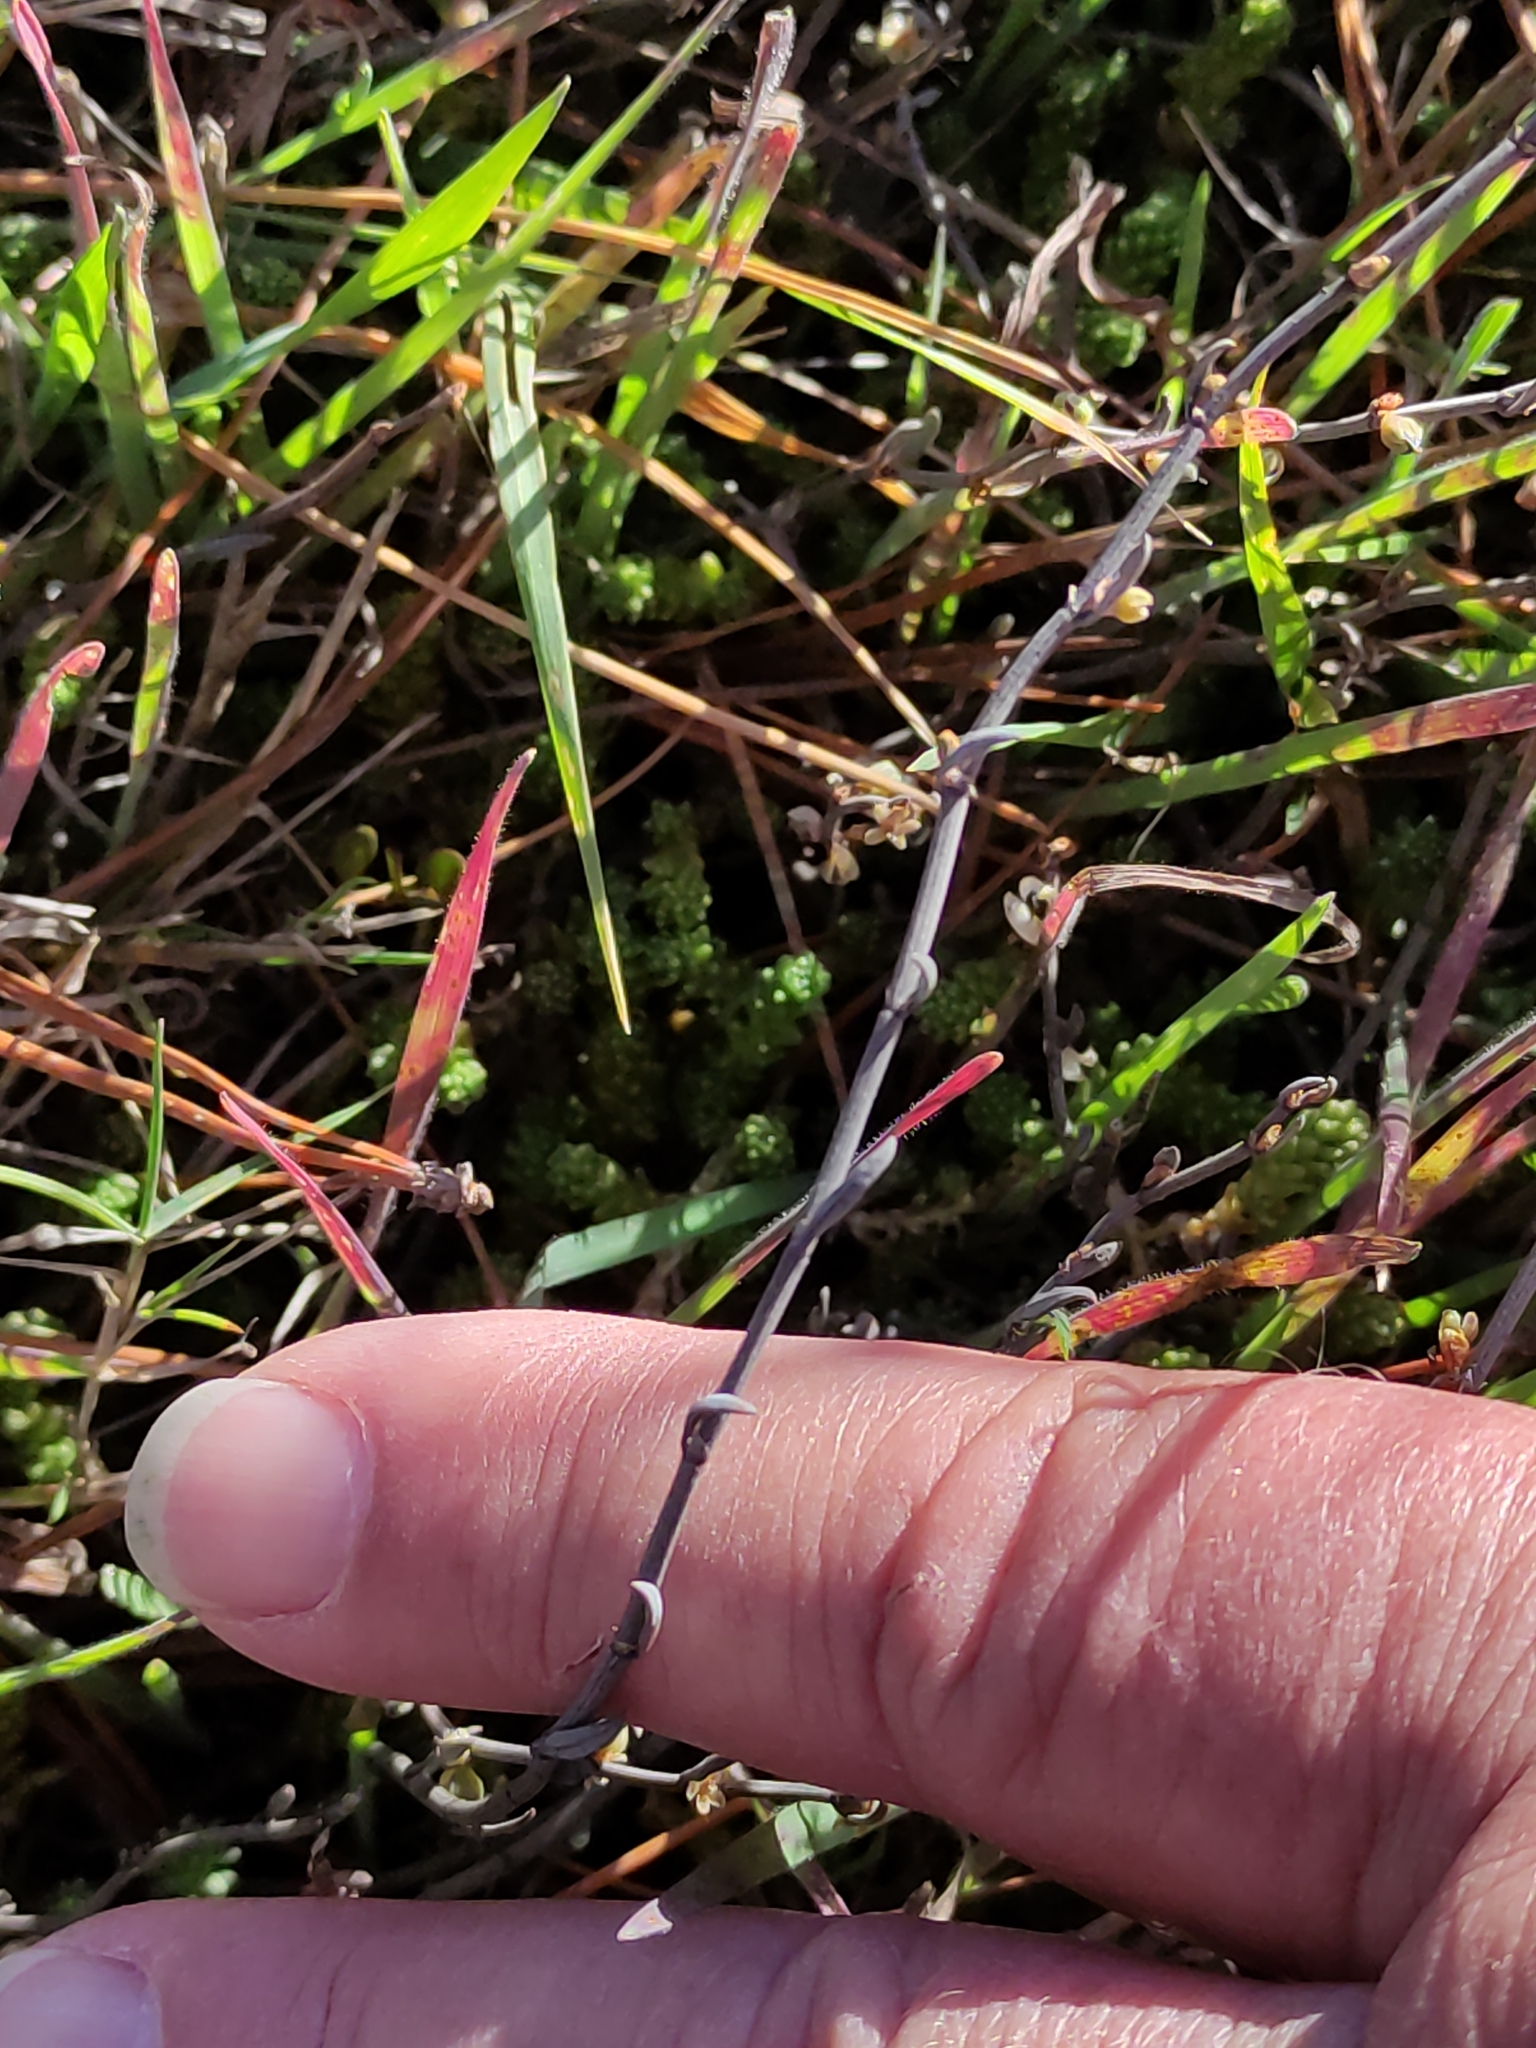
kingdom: Plantae
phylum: Tracheophyta
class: Magnoliopsida
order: Caryophyllales
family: Polygonaceae
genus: Muehlenbeckia
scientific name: Muehlenbeckia ephedroides
